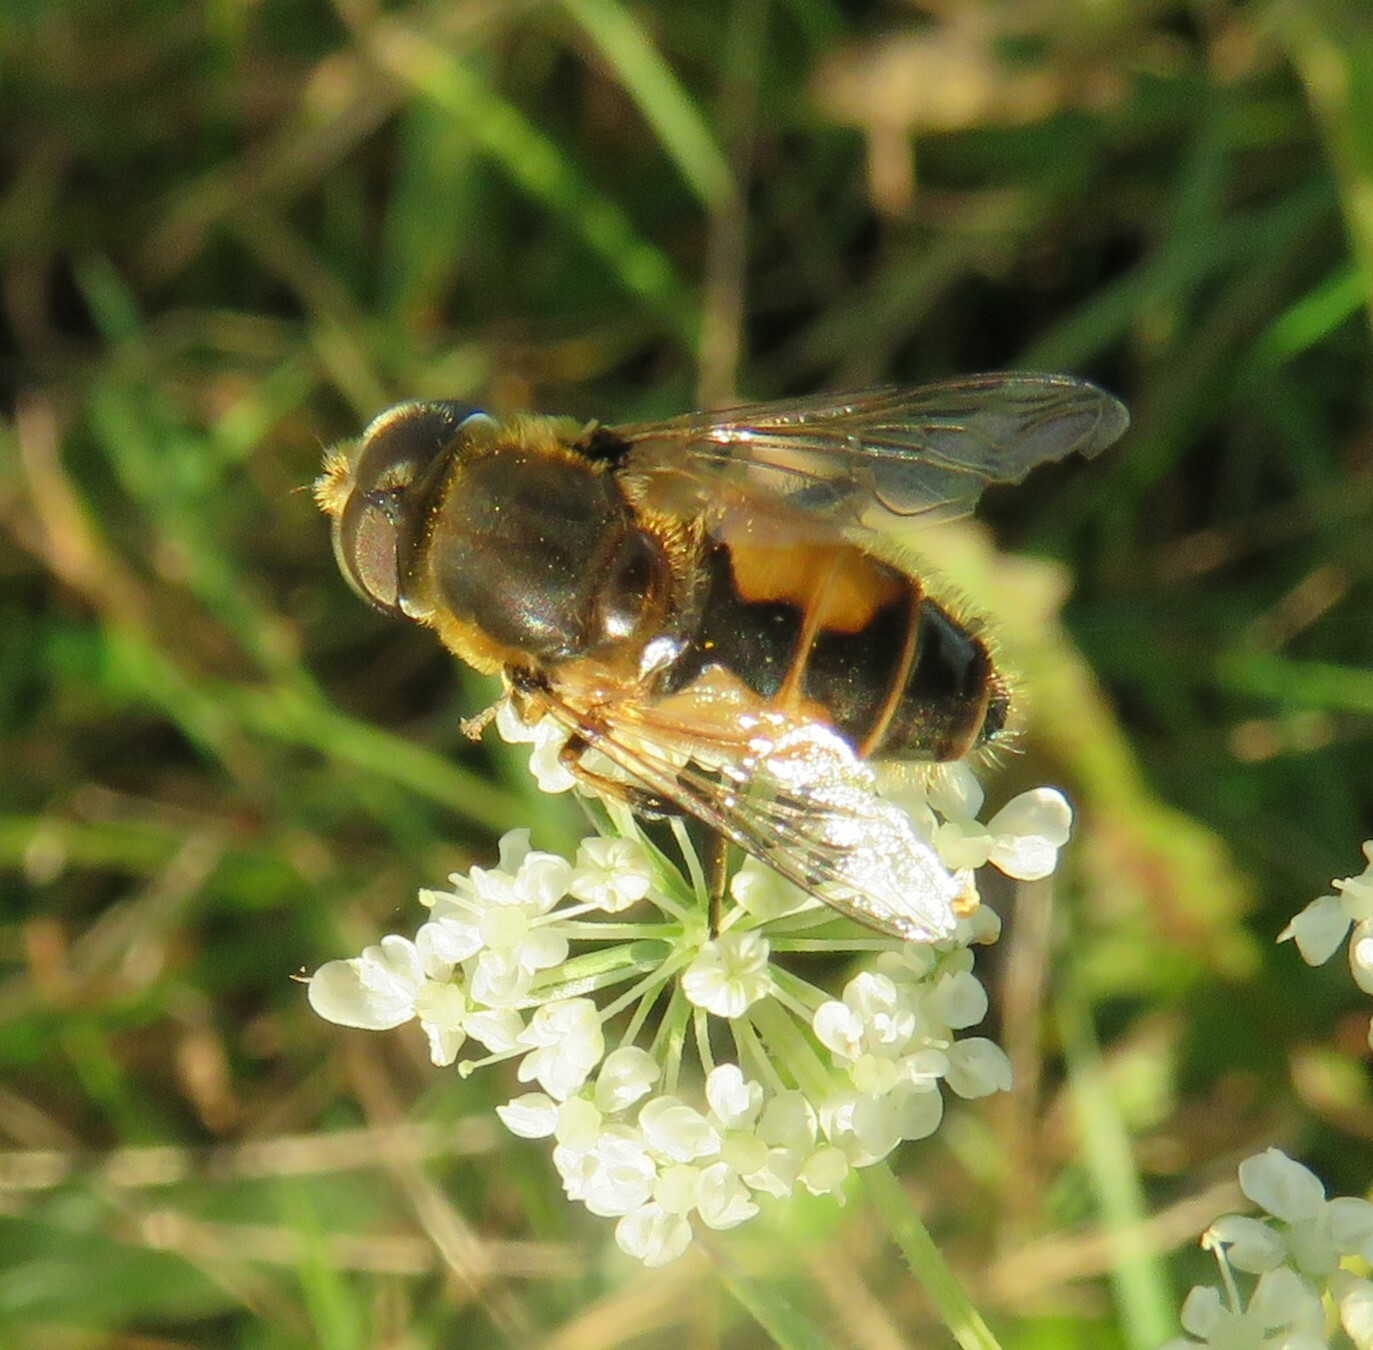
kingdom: Animalia
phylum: Arthropoda
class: Insecta
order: Diptera
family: Syrphidae
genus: Eristalis
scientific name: Eristalis arbustorum
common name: Hover fly
